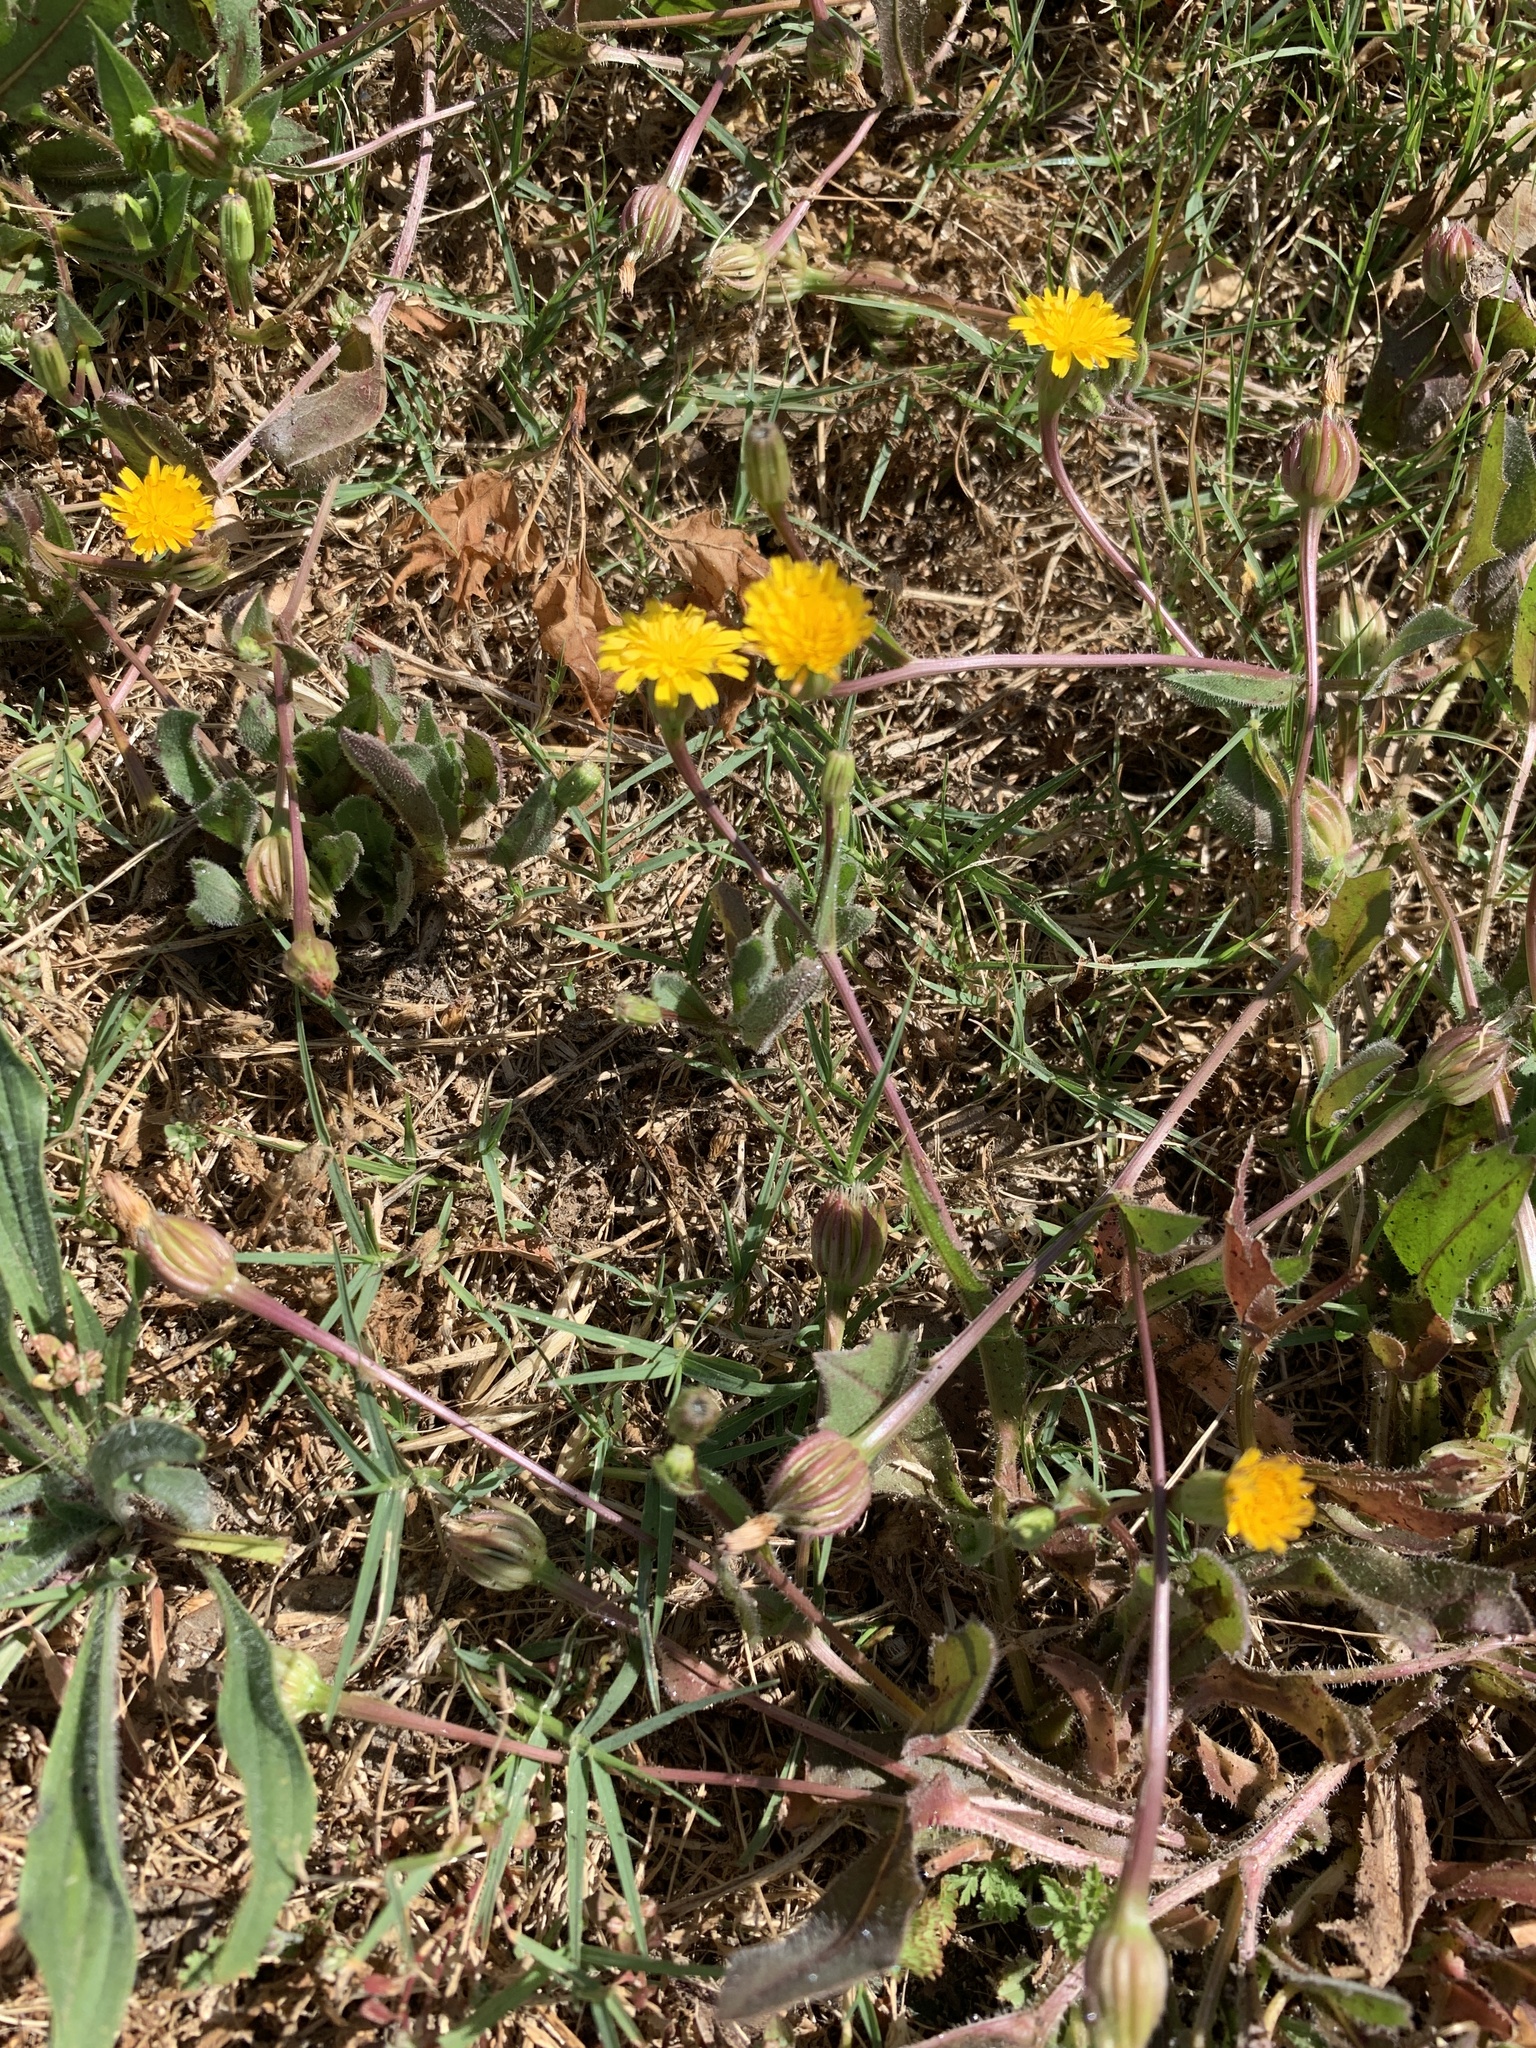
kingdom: Plantae
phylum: Tracheophyta
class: Magnoliopsida
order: Asterales
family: Asteraceae
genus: Hedypnois
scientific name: Hedypnois rhagadioloides
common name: Cretan weed
